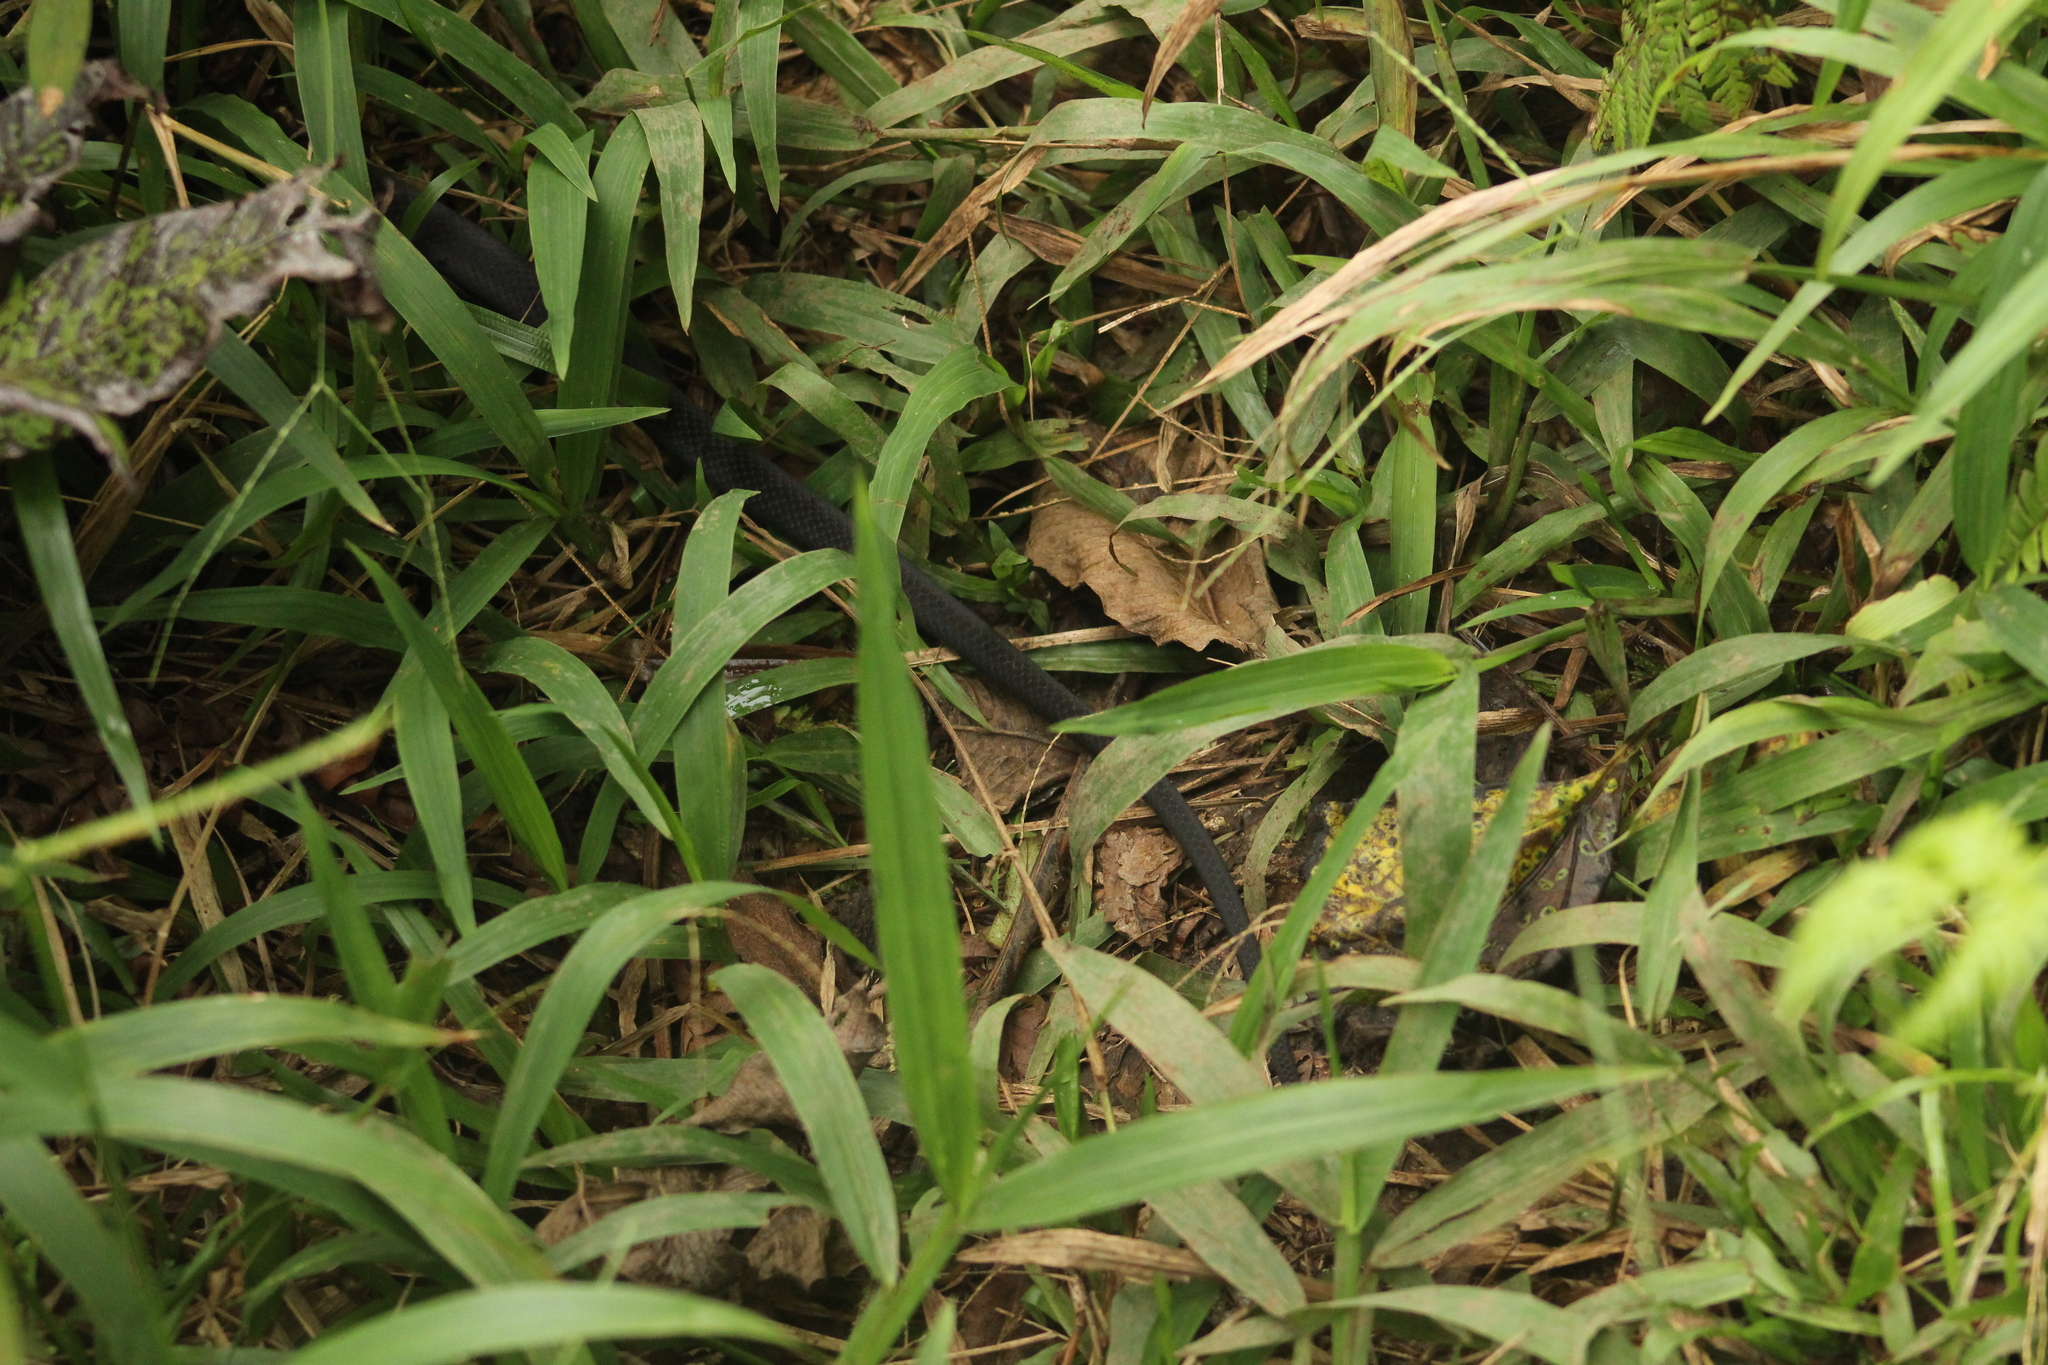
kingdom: Animalia
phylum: Chordata
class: Squamata
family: Colubridae
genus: Alsophis
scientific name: Alsophis rufiventris
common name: Orange-bellied racer
